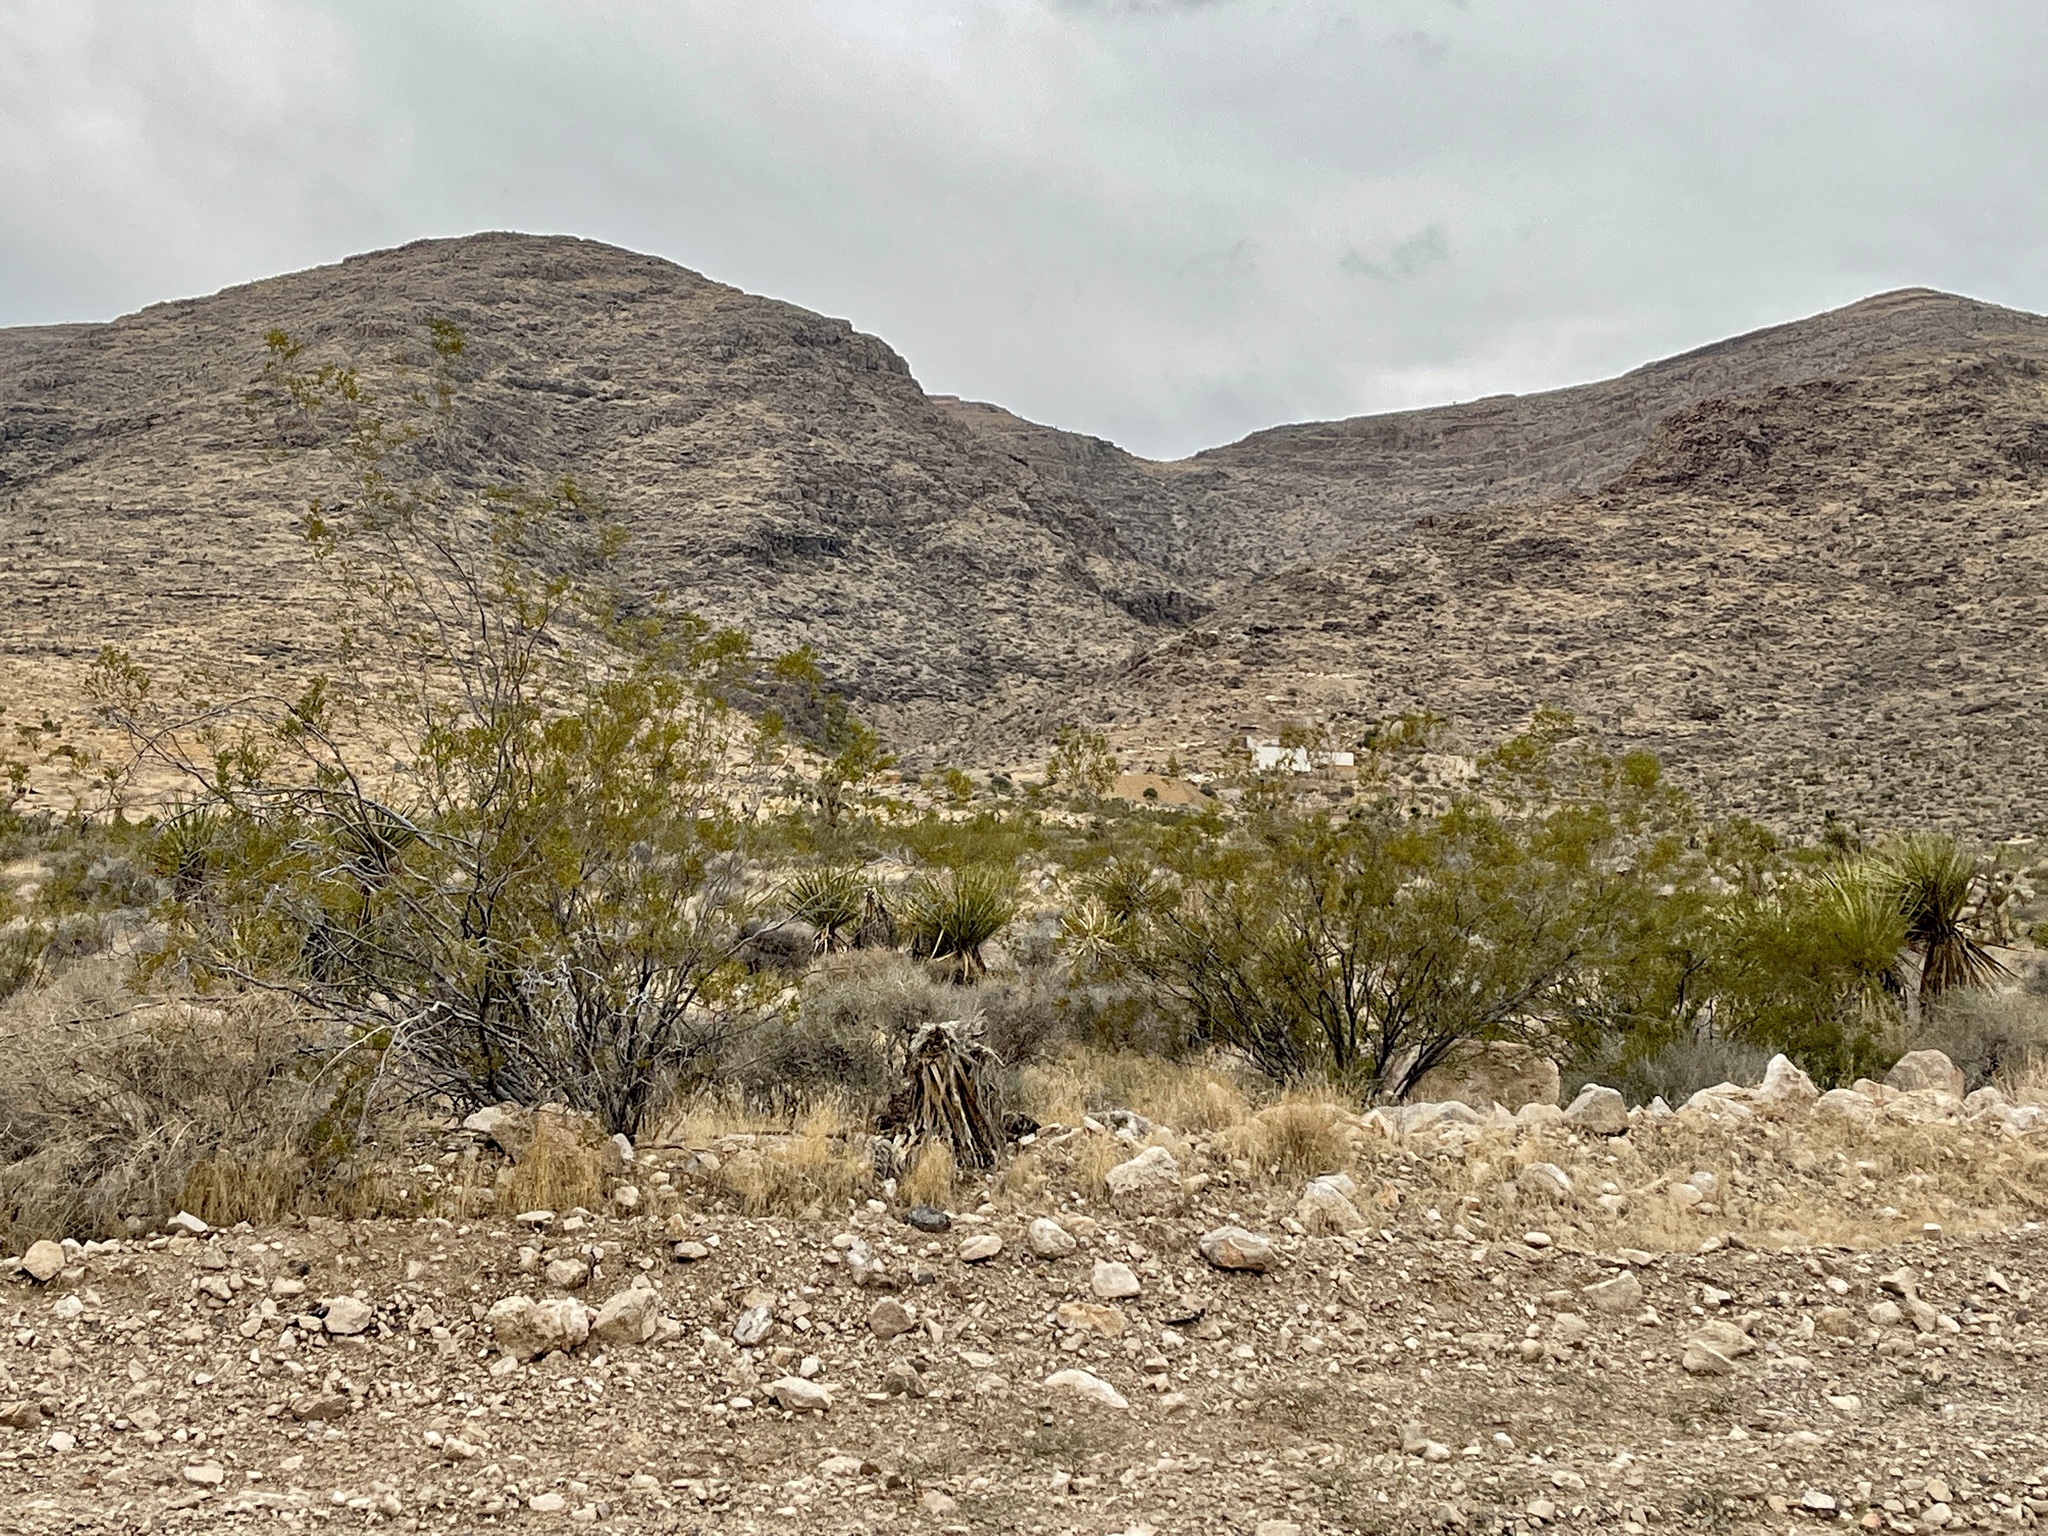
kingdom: Plantae
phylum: Tracheophyta
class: Magnoliopsida
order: Zygophyllales
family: Zygophyllaceae
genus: Larrea
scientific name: Larrea tridentata
